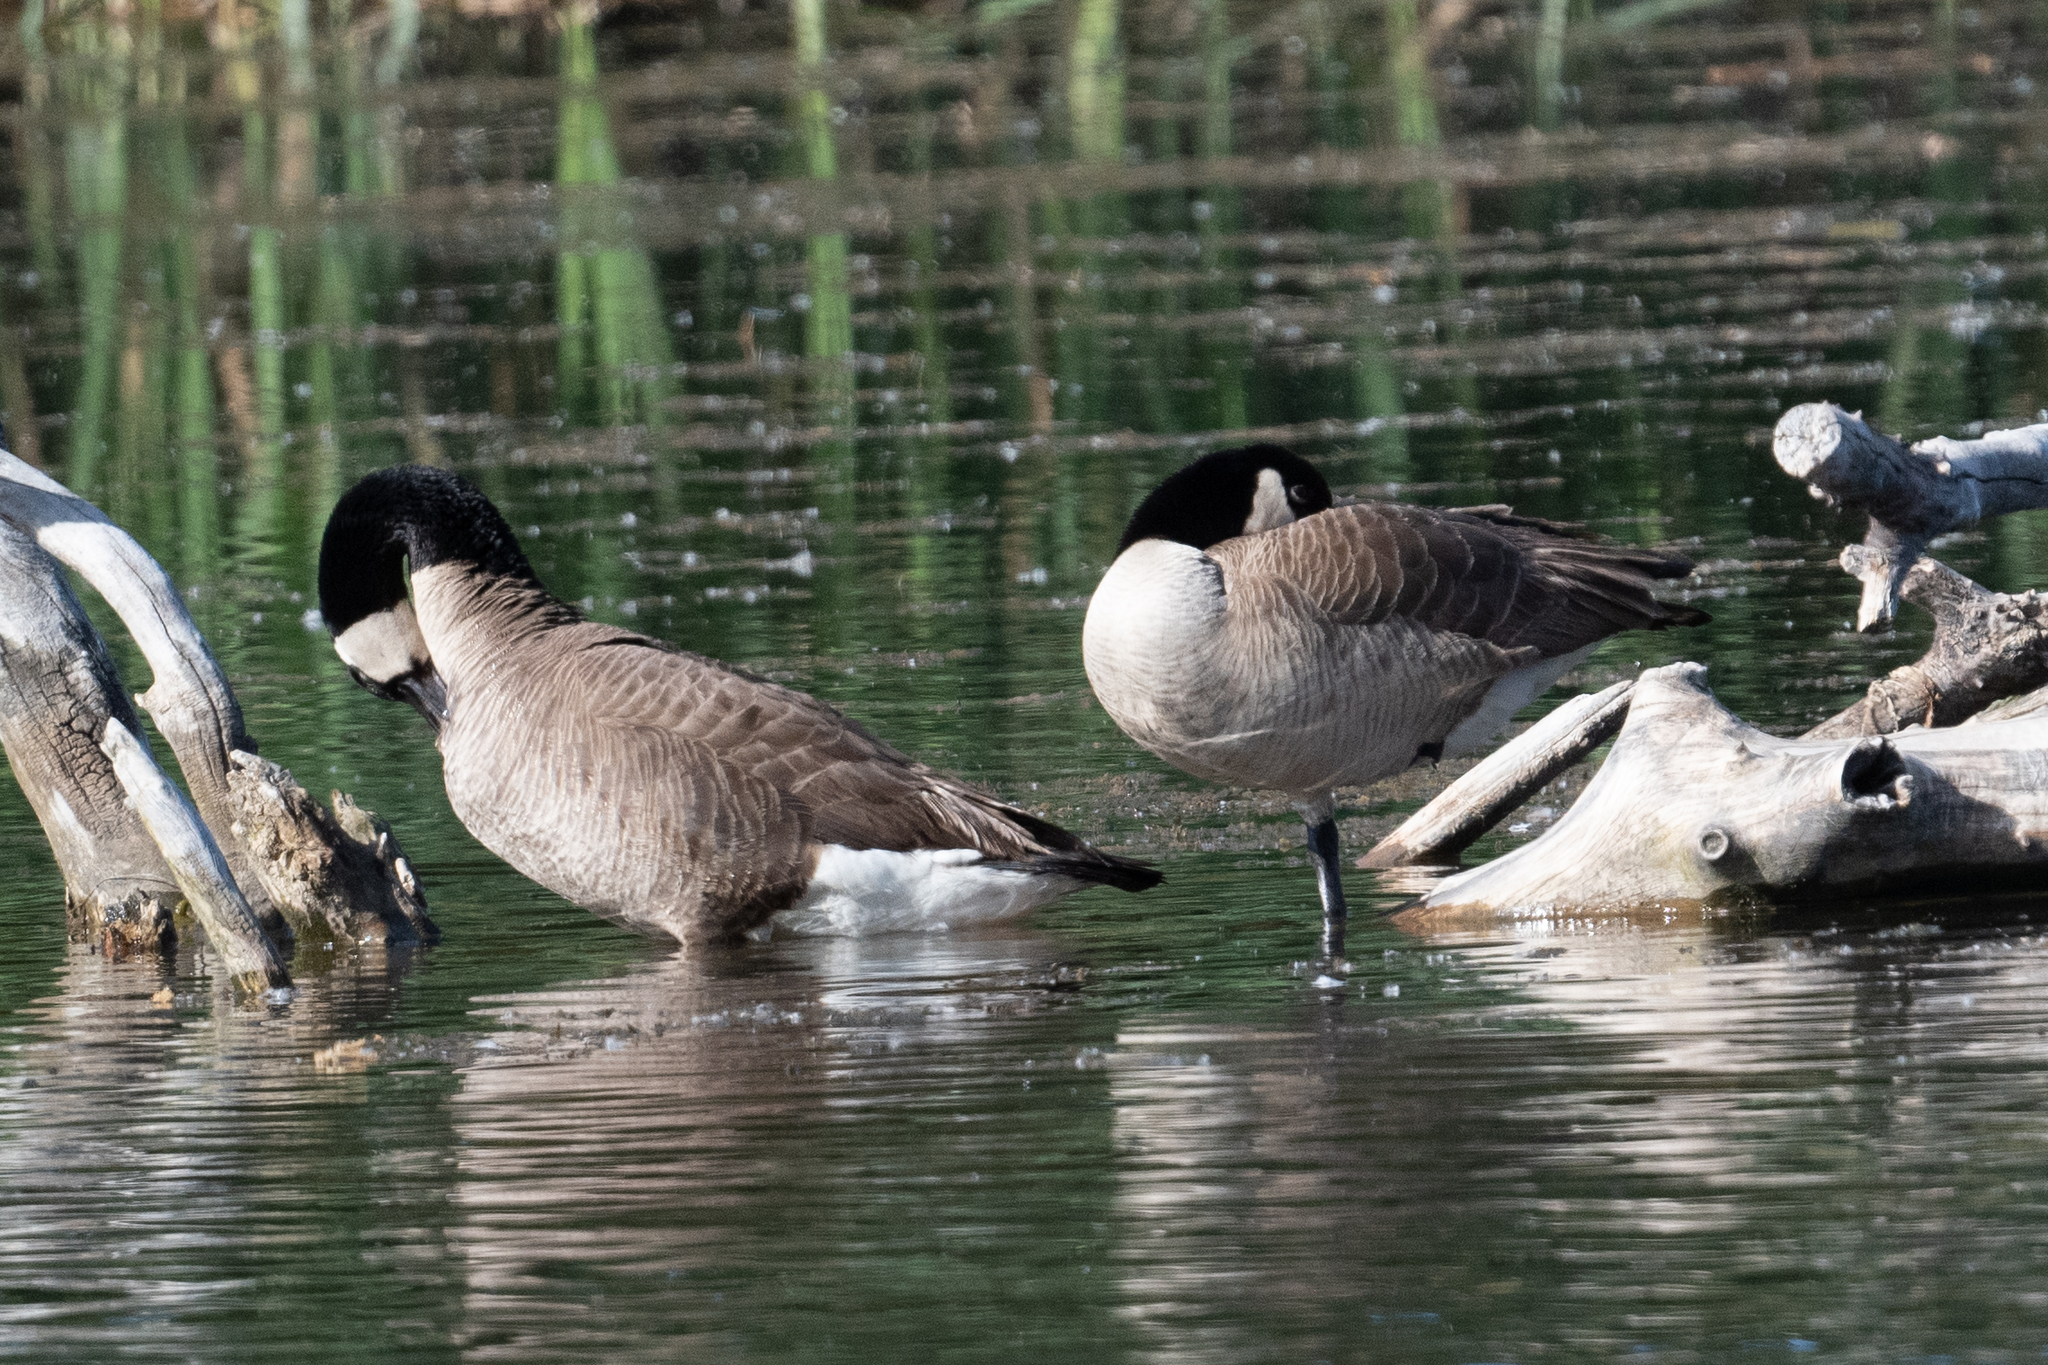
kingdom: Animalia
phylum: Chordata
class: Aves
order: Anseriformes
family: Anatidae
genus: Branta
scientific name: Branta canadensis
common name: Canada goose
